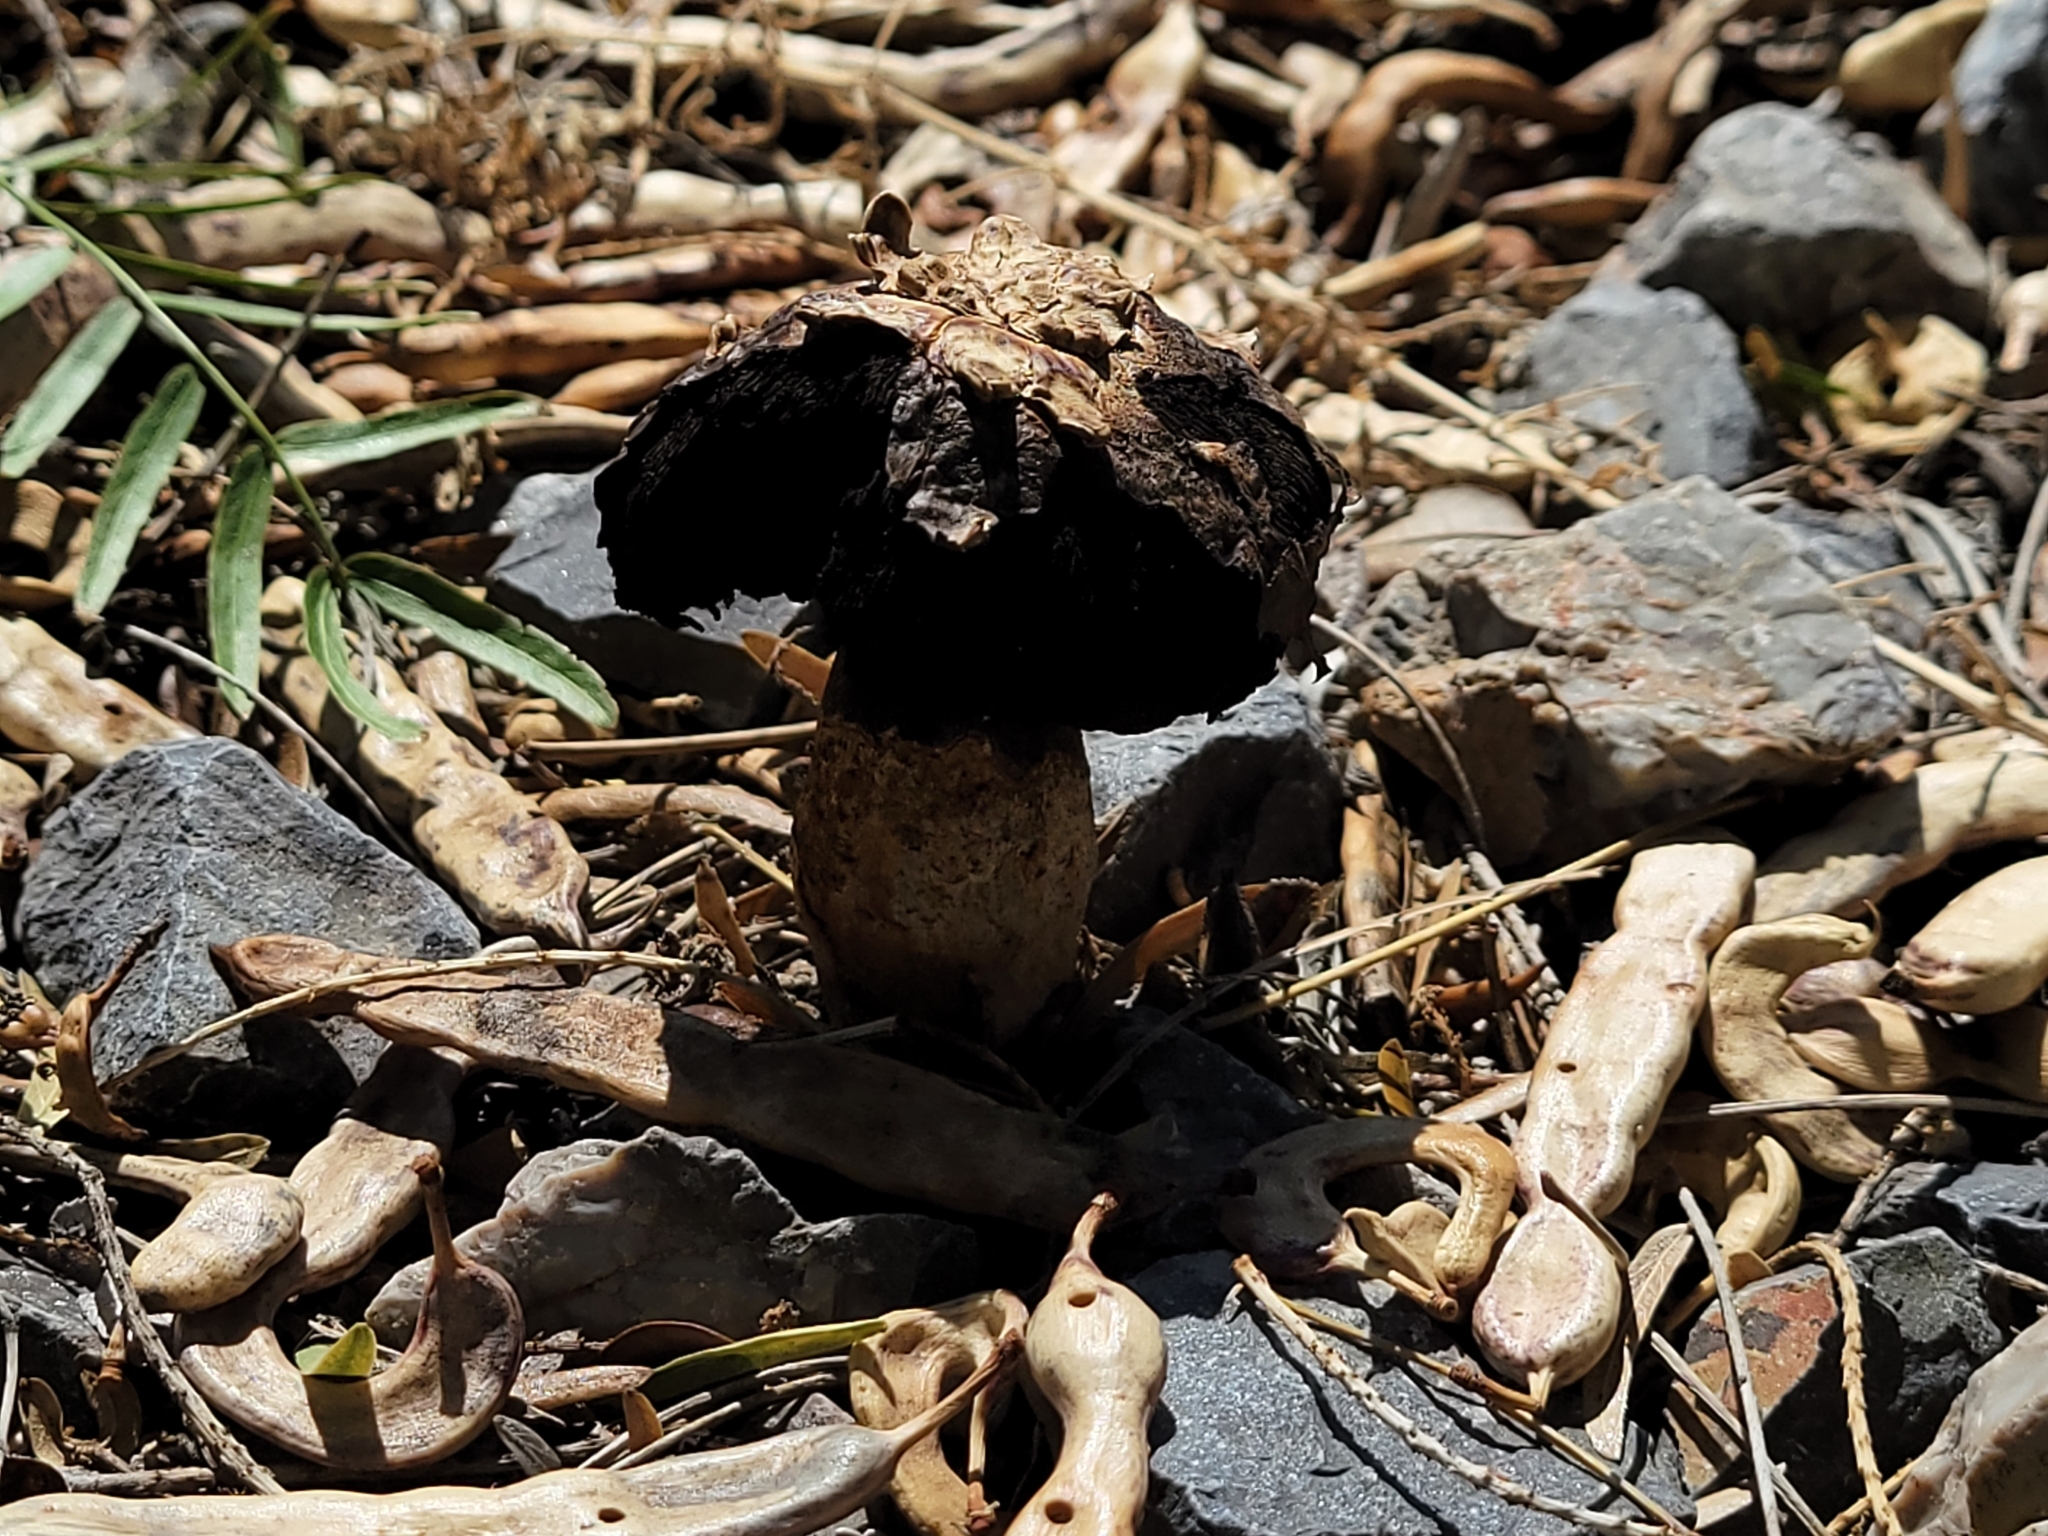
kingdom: Fungi
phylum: Basidiomycota
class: Agaricomycetes
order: Agaricales
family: Agaricaceae
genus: Agaricus
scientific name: Agaricus deserticola
